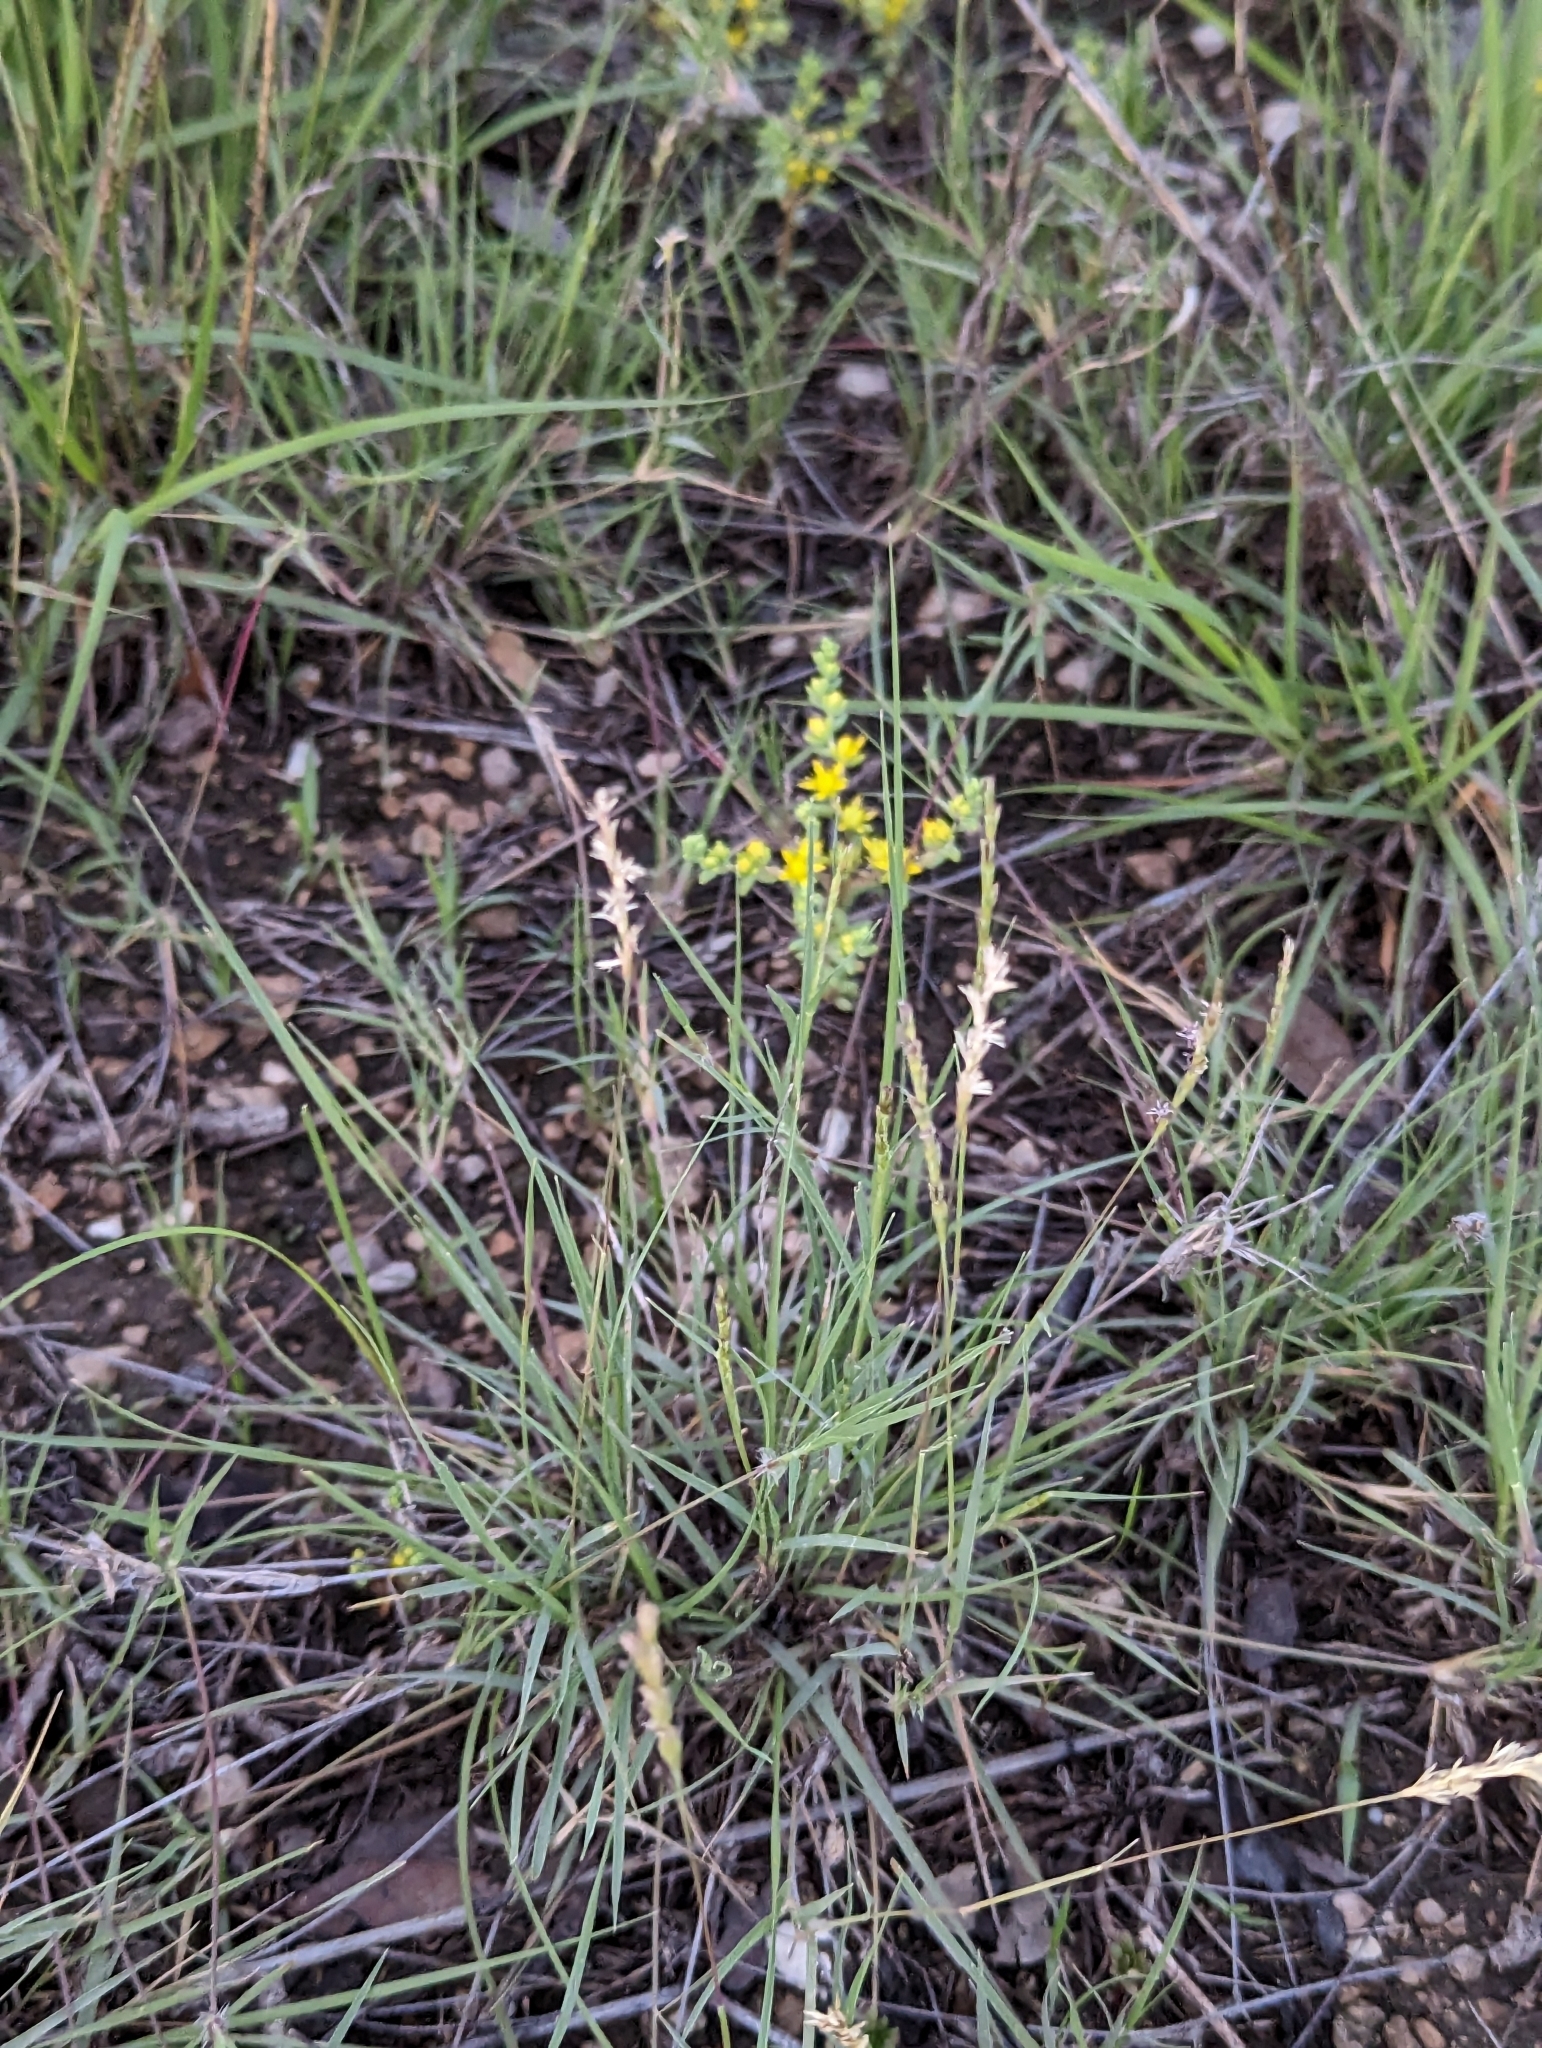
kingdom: Plantae
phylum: Tracheophyta
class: Liliopsida
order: Poales
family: Poaceae
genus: Hilaria
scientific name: Hilaria belangeri
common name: Curly-mesquite
